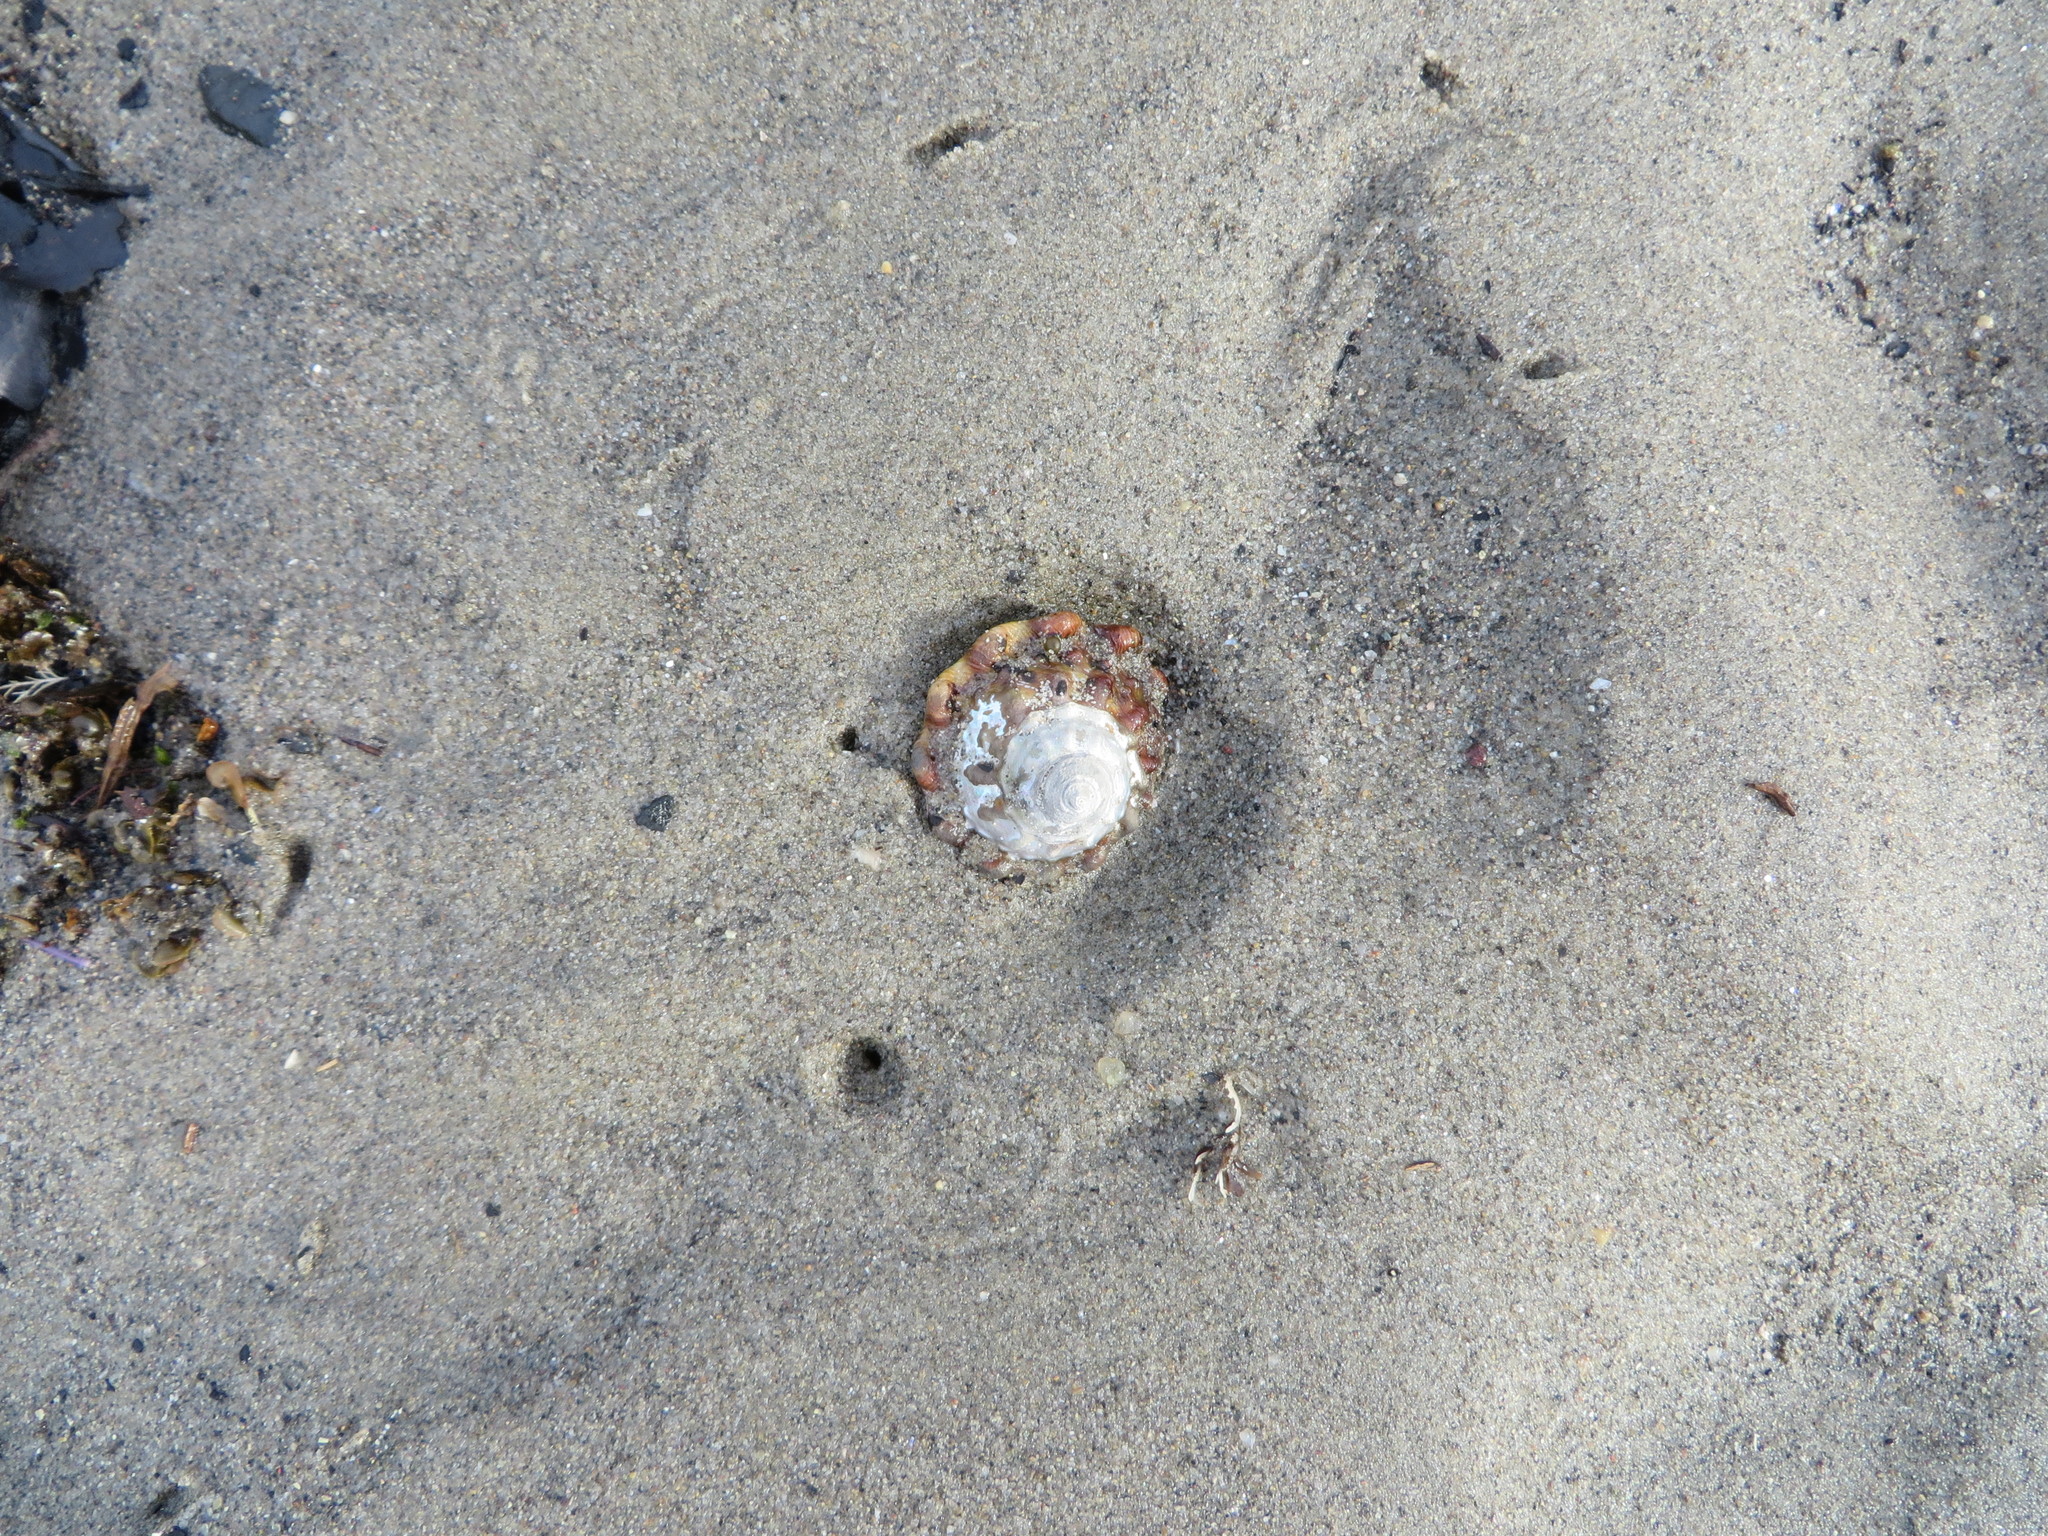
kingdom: Animalia
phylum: Mollusca
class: Gastropoda
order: Trochida
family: Turbinidae
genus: Megastraea
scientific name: Megastraea undosa
